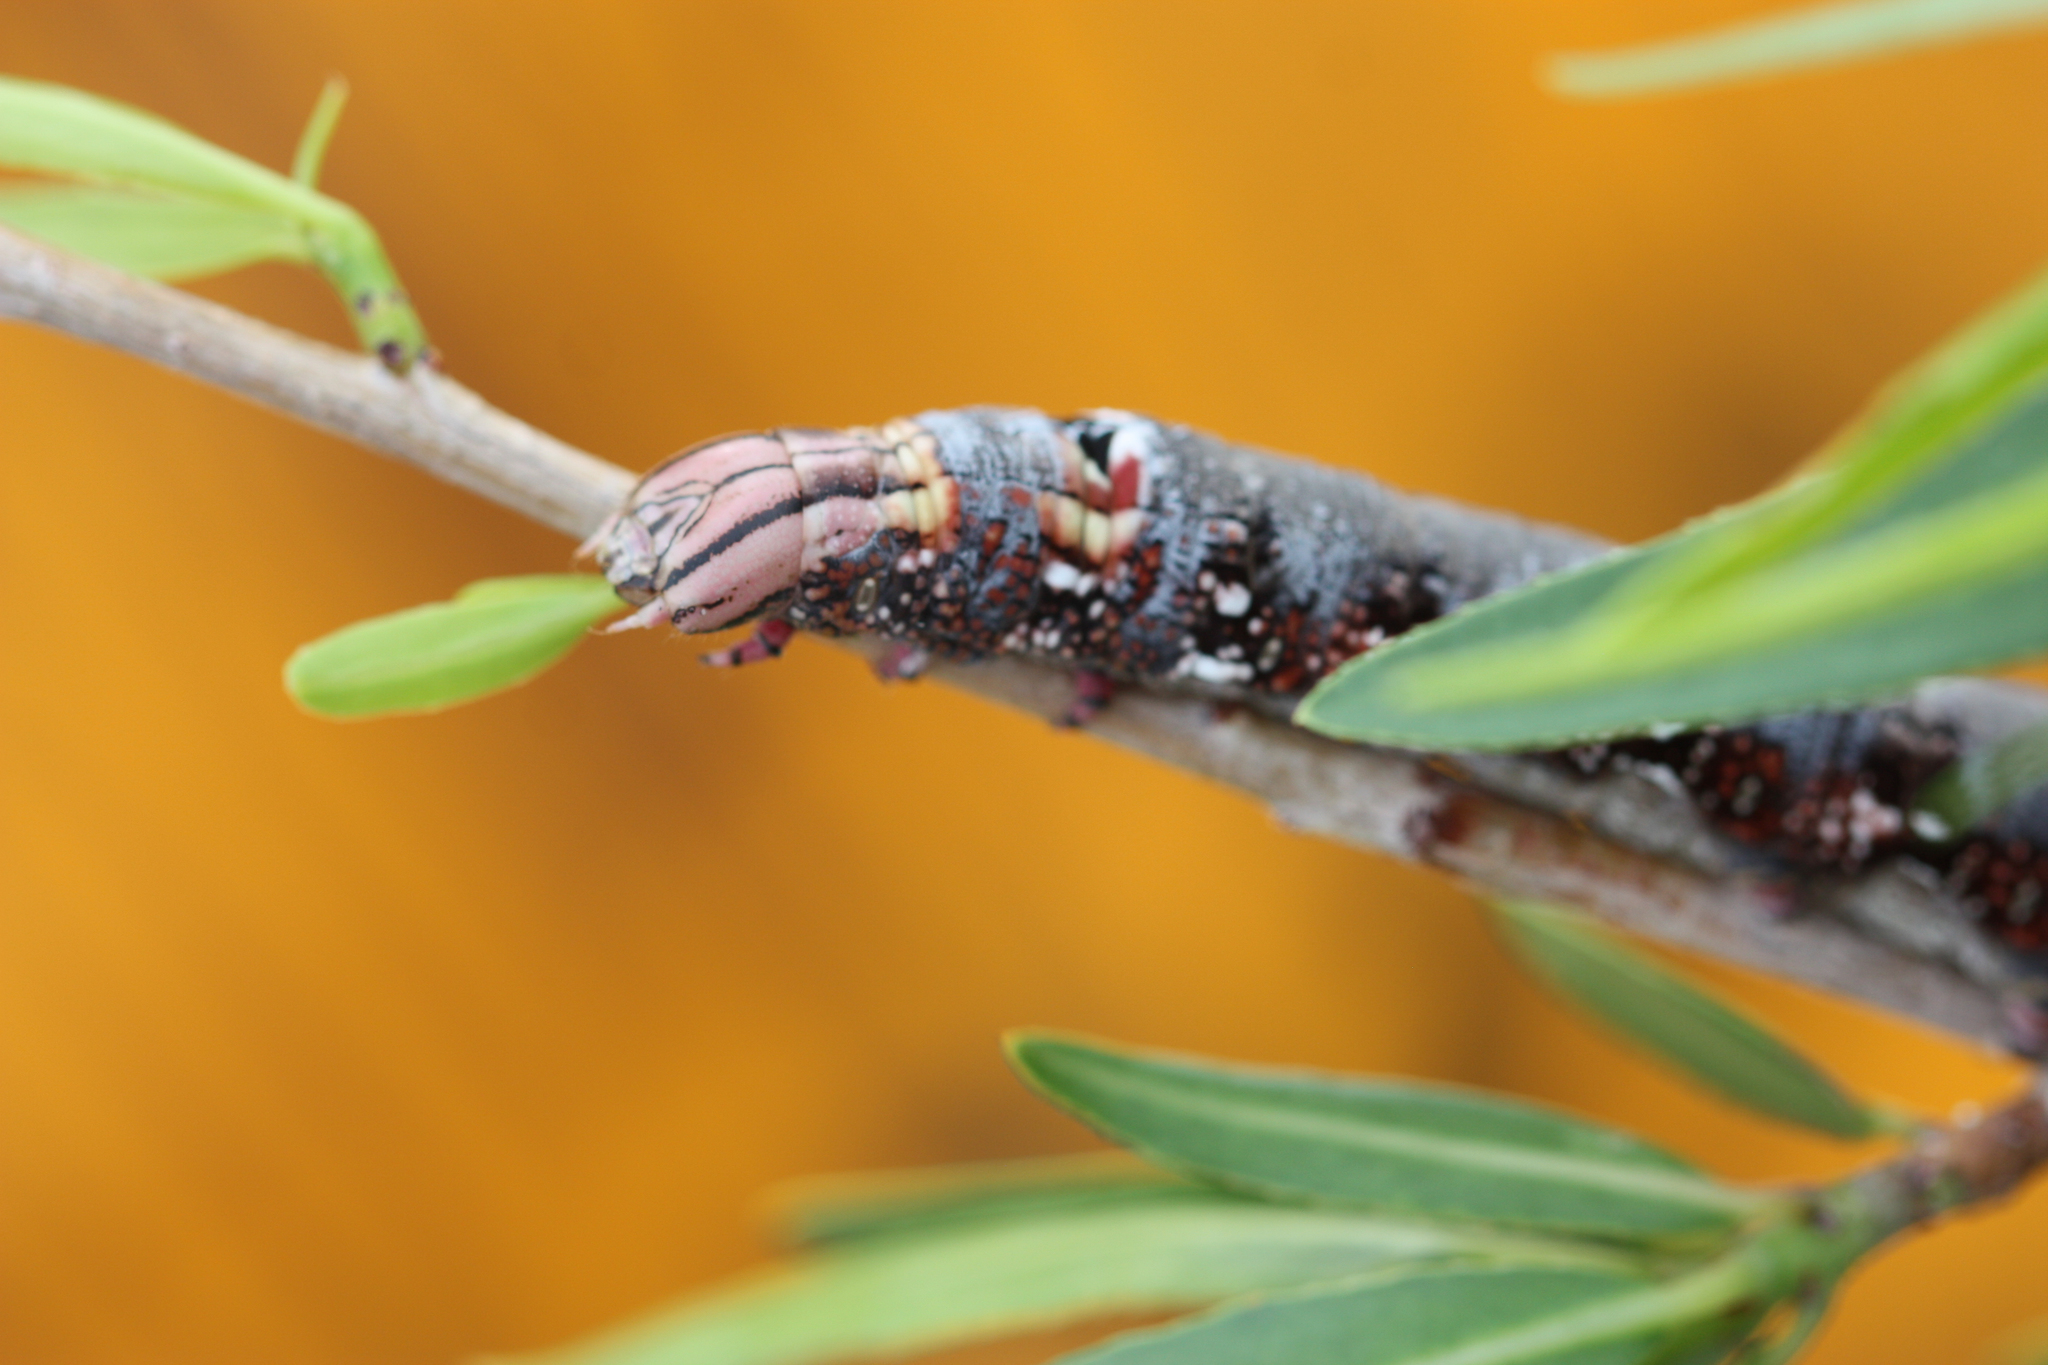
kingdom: Animalia
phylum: Arthropoda
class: Insecta
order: Lepidoptera
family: Sphingidae
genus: Erinnyis
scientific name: Erinnyis ello
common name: Ello sphinx
